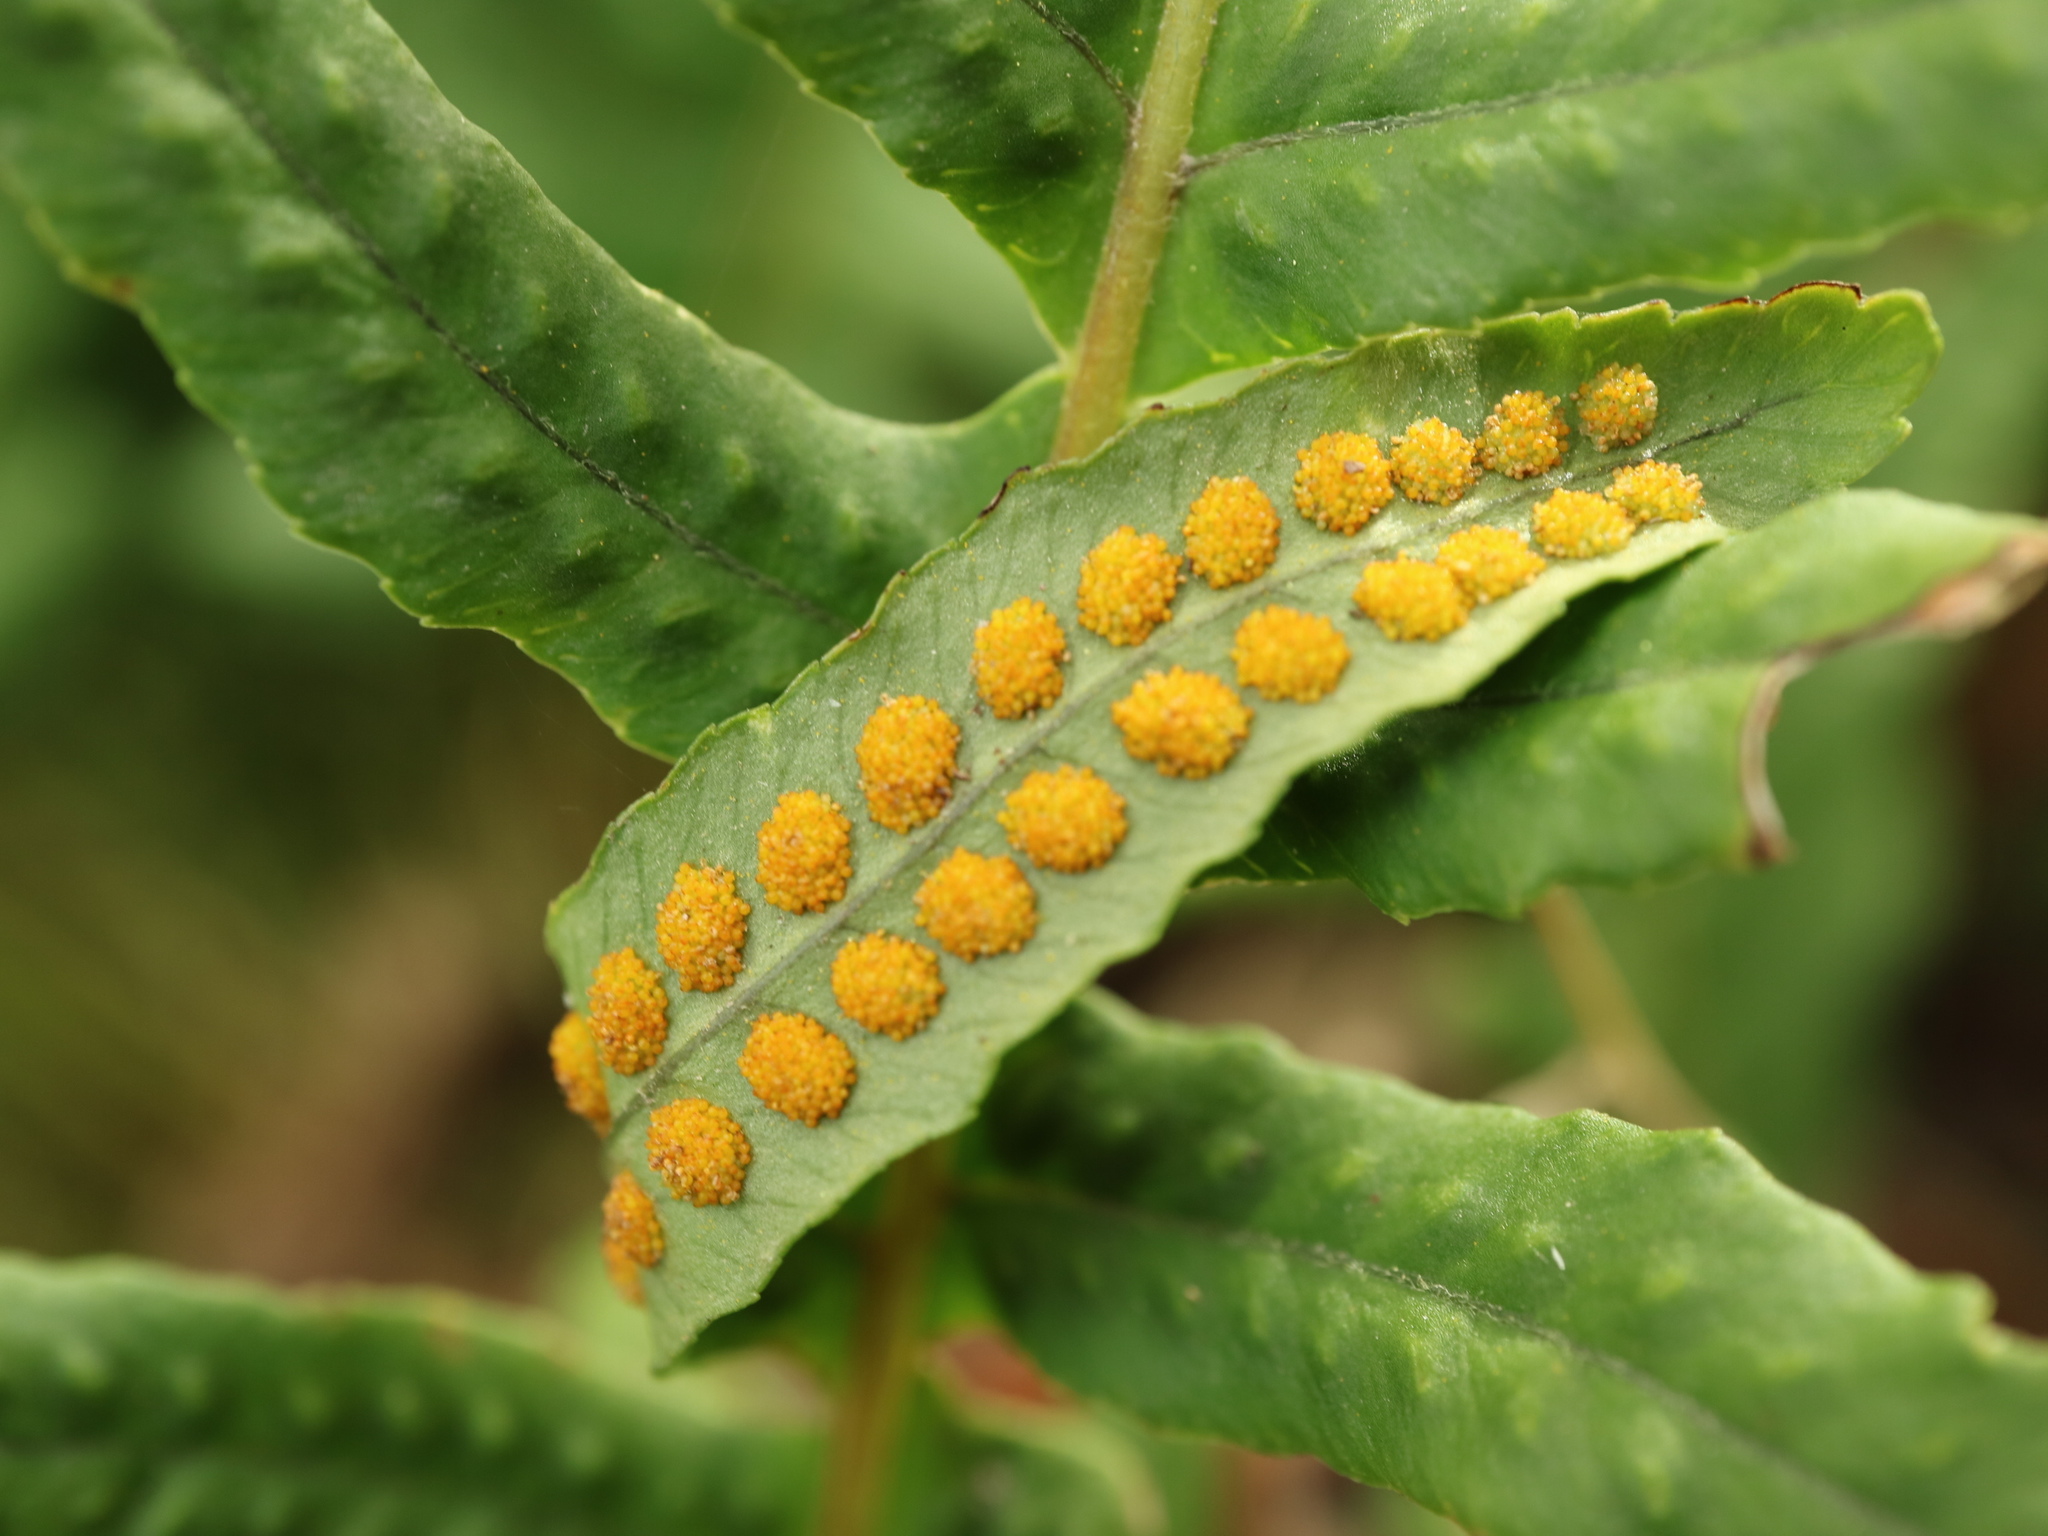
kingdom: Plantae
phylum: Tracheophyta
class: Polypodiopsida
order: Polypodiales
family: Polypodiaceae
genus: Polypodium
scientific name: Polypodium glycyrrhiza
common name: Licorice fern
